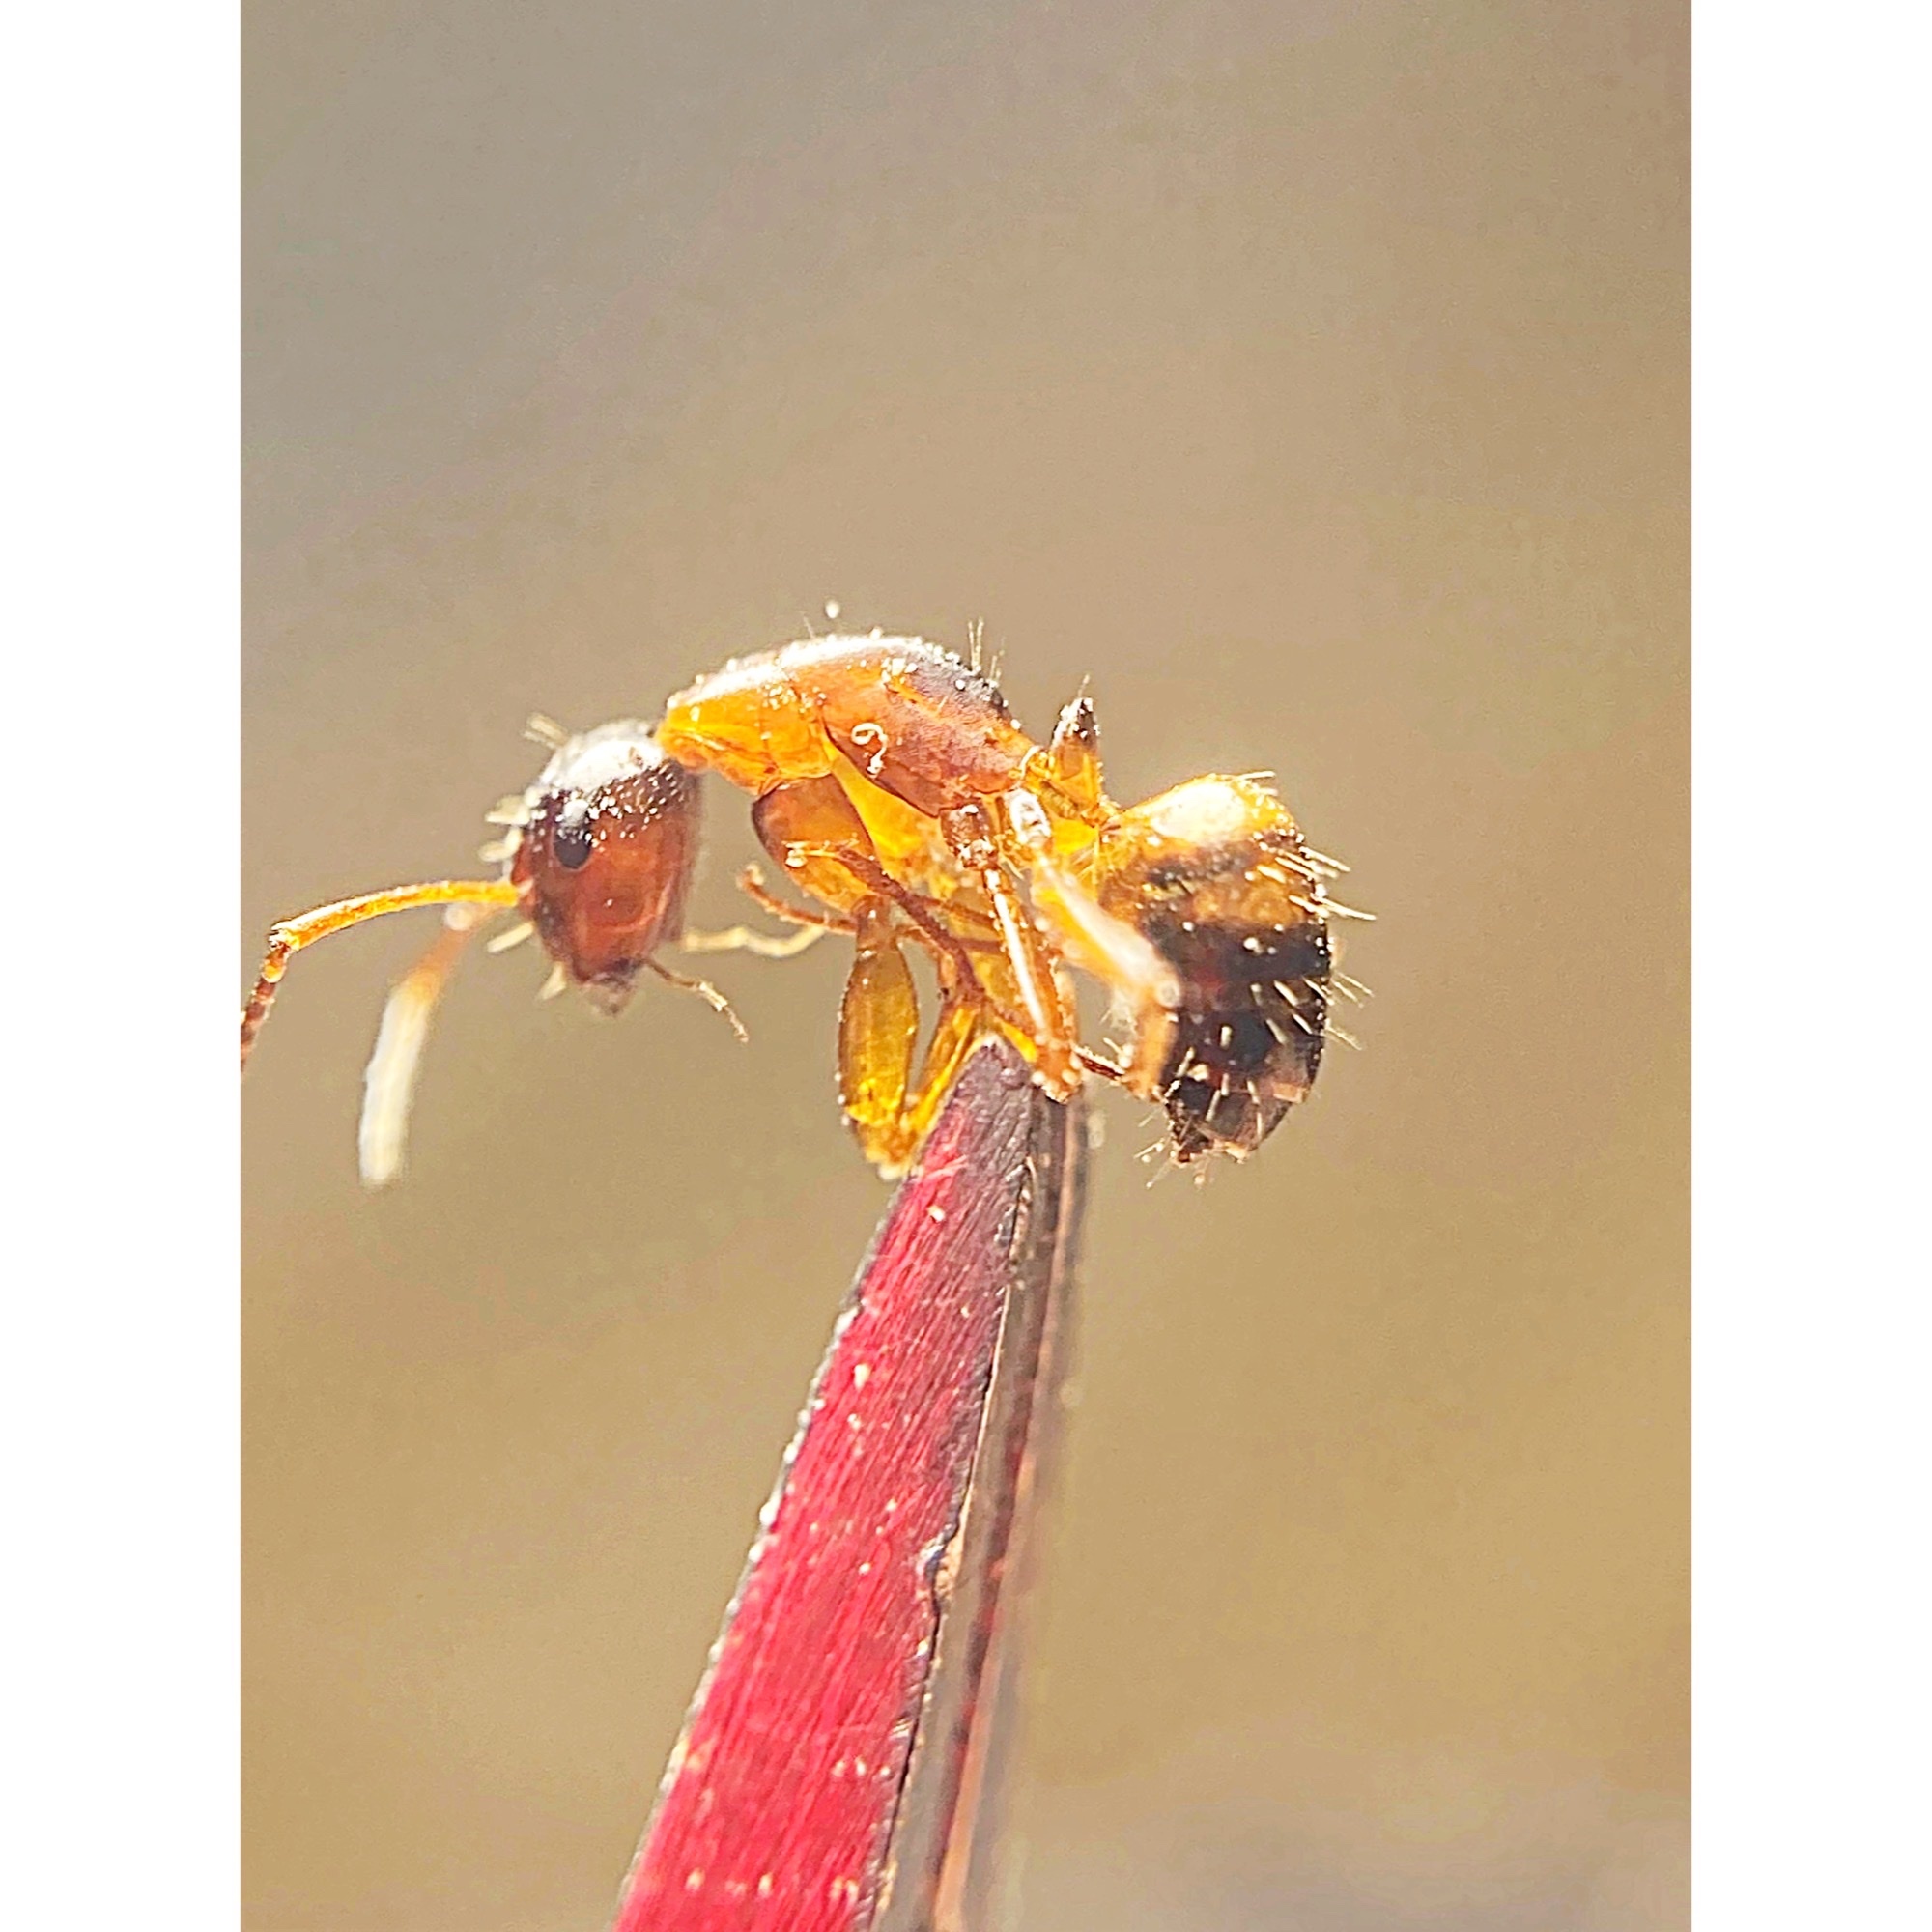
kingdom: Animalia
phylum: Arthropoda
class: Insecta
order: Hymenoptera
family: Formicidae
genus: Camponotus
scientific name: Camponotus subbarbatus
